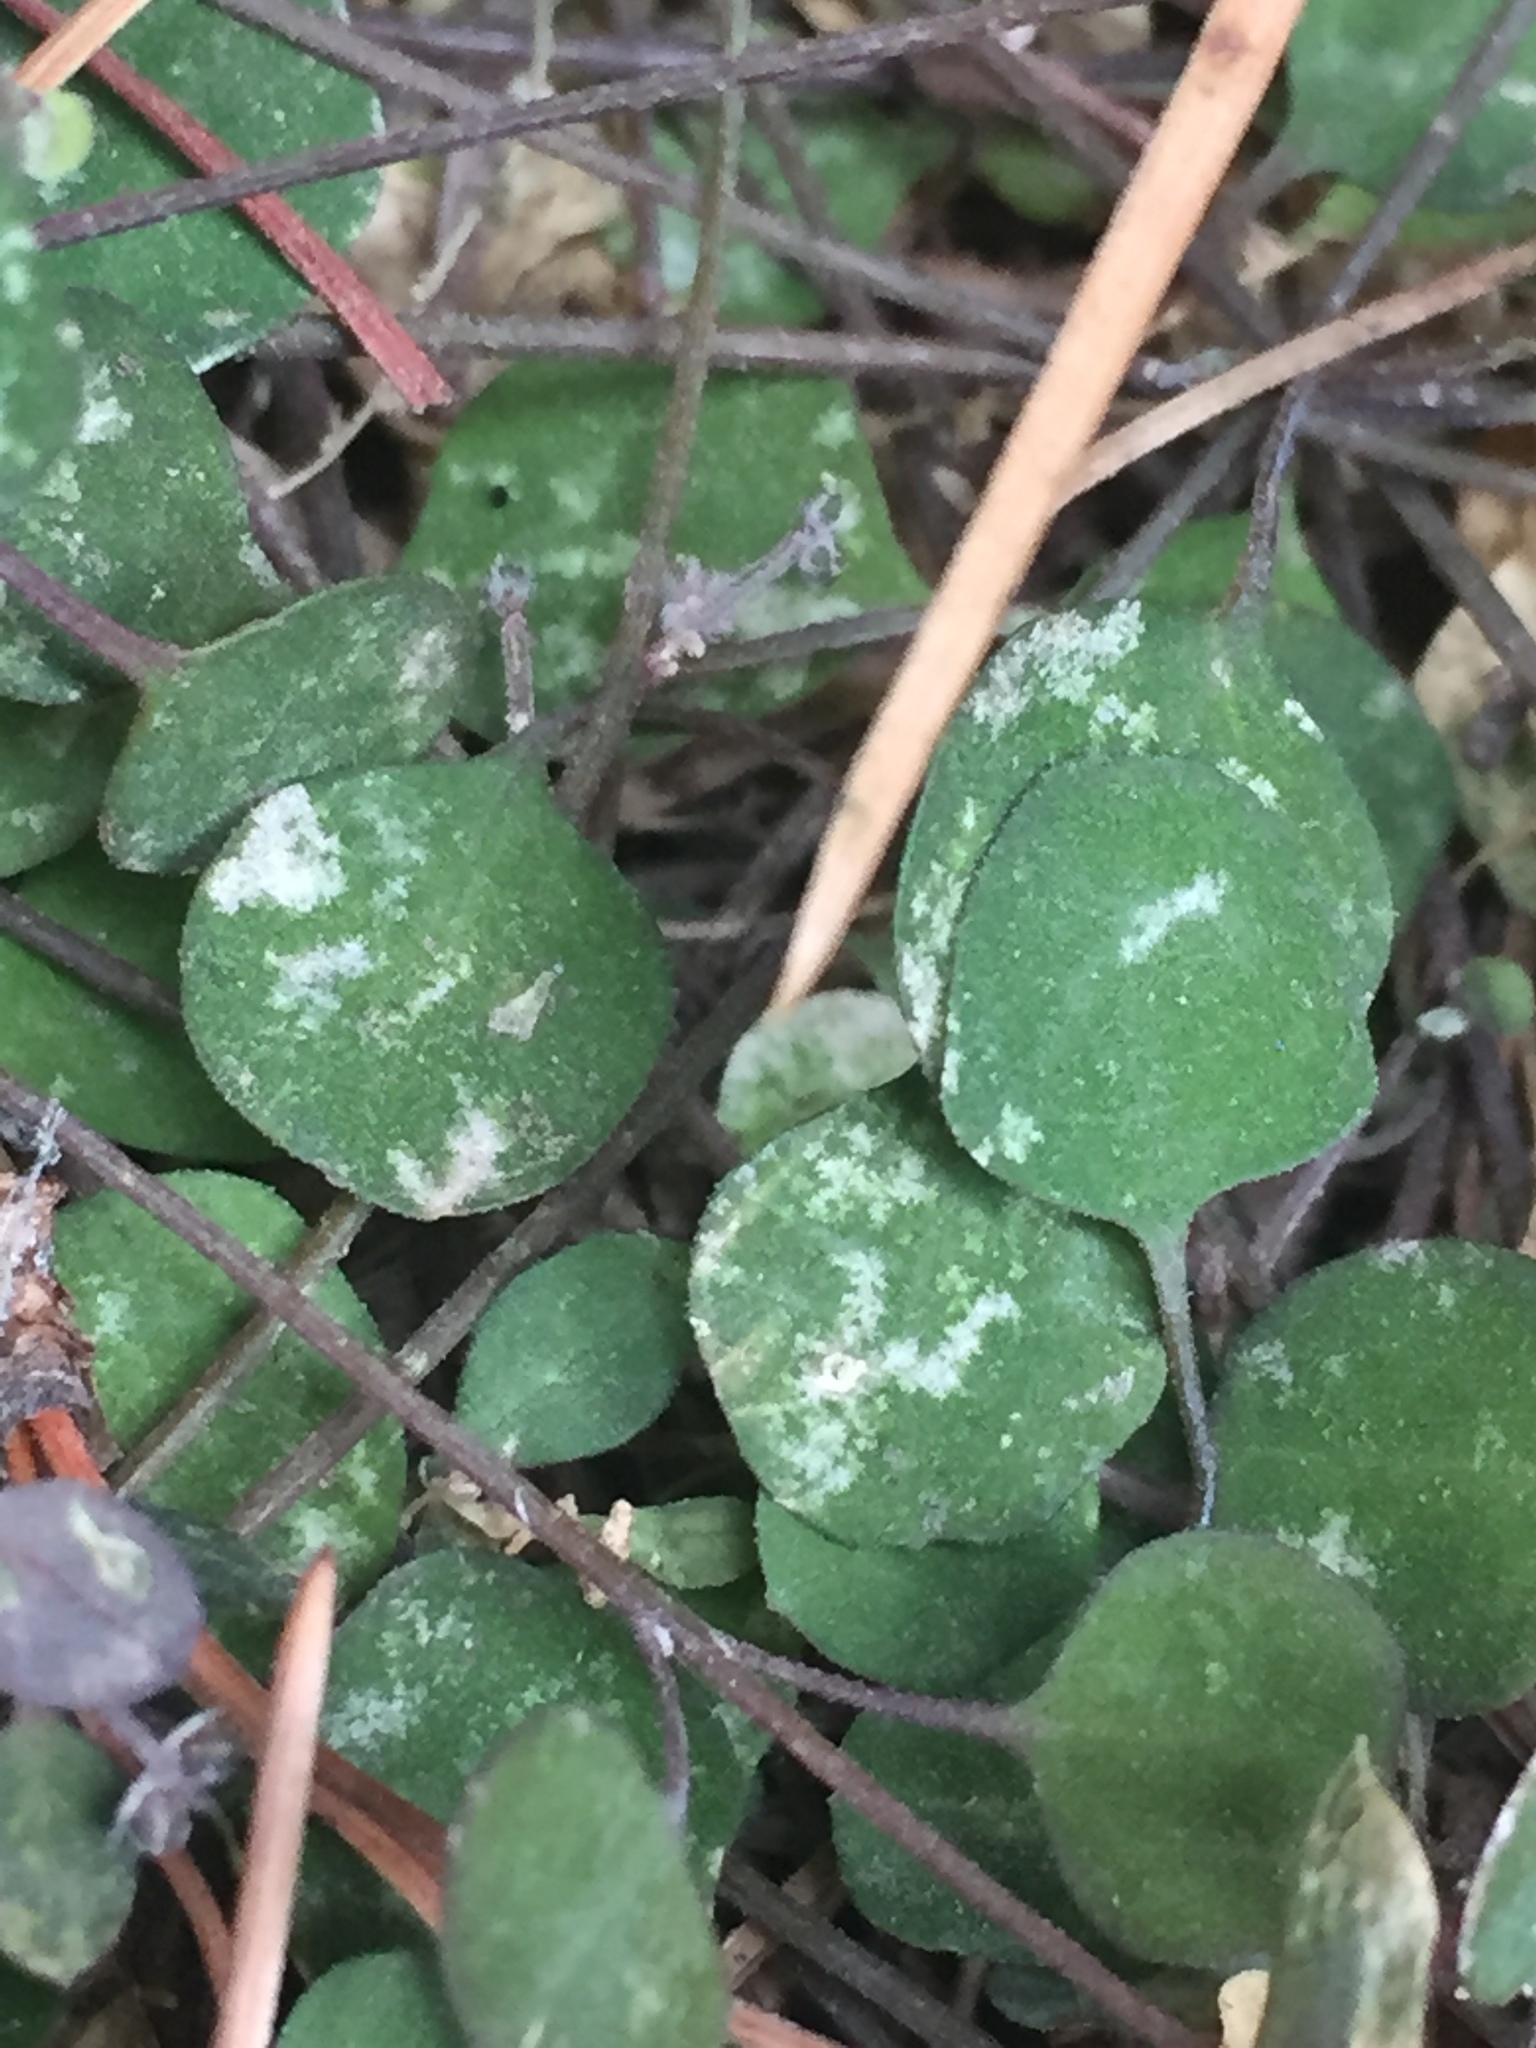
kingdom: Plantae
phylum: Tracheophyta
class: Magnoliopsida
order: Caryophyllales
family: Amaranthaceae
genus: Chenopodium
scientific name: Chenopodium allanii
